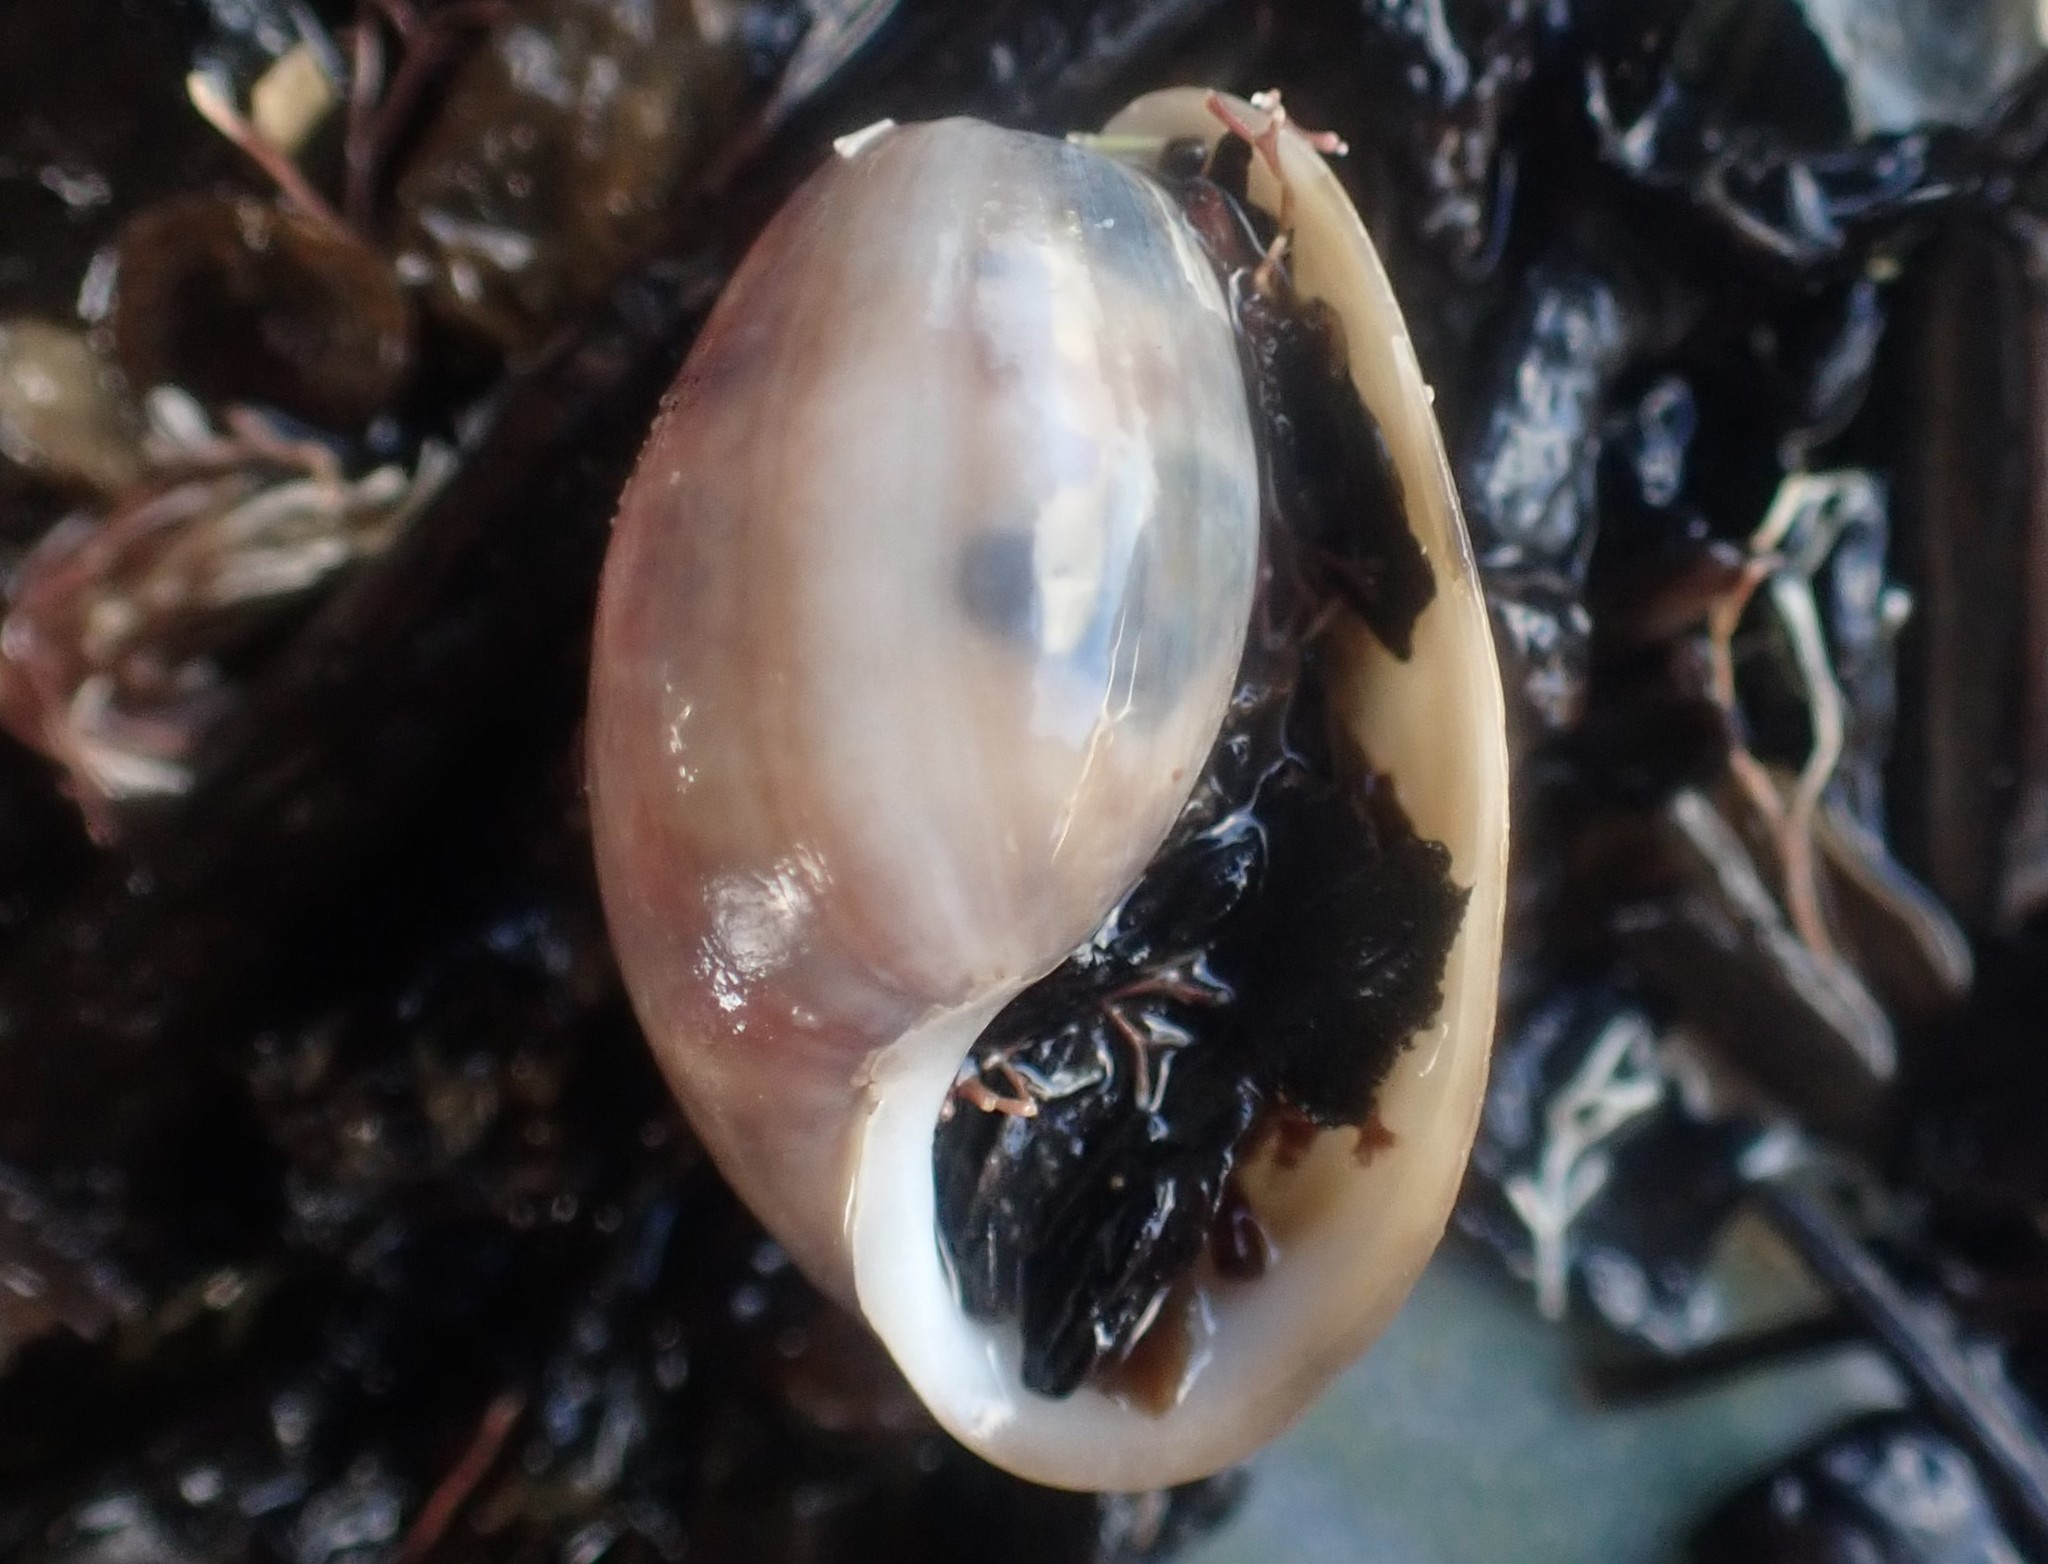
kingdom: Animalia
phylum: Mollusca
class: Gastropoda
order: Cephalaspidea
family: Bullidae
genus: Bulla
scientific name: Bulla quoyii
